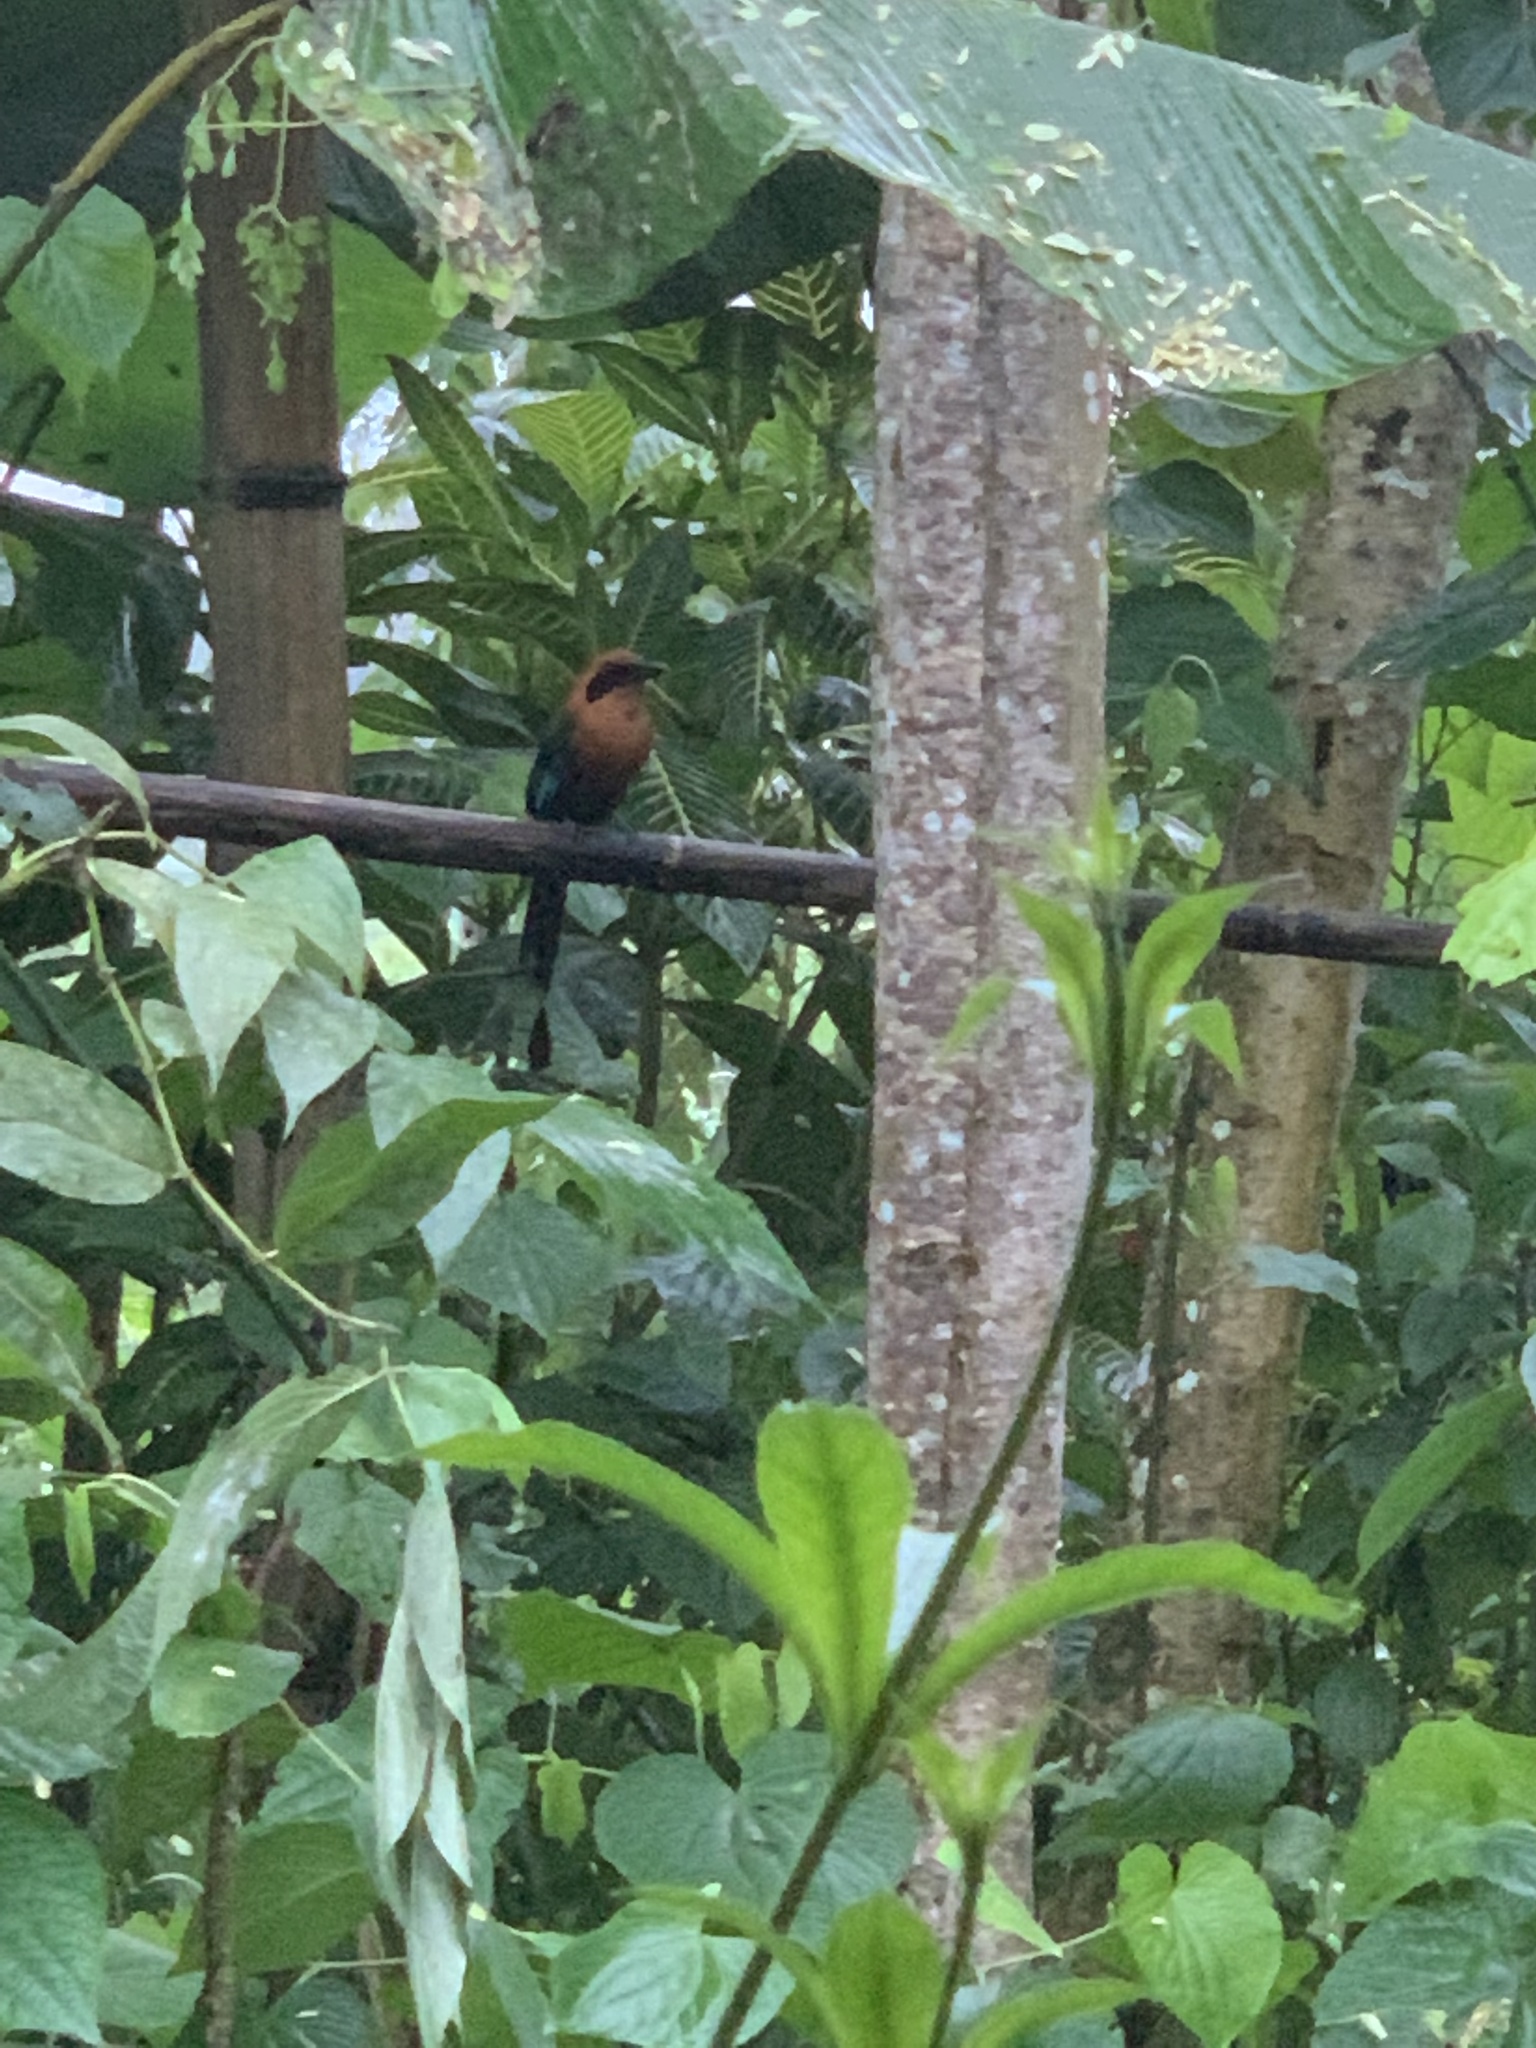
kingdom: Animalia
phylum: Chordata
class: Aves
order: Coraciiformes
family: Momotidae
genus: Baryphthengus
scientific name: Baryphthengus martii
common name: Rufous motmot
